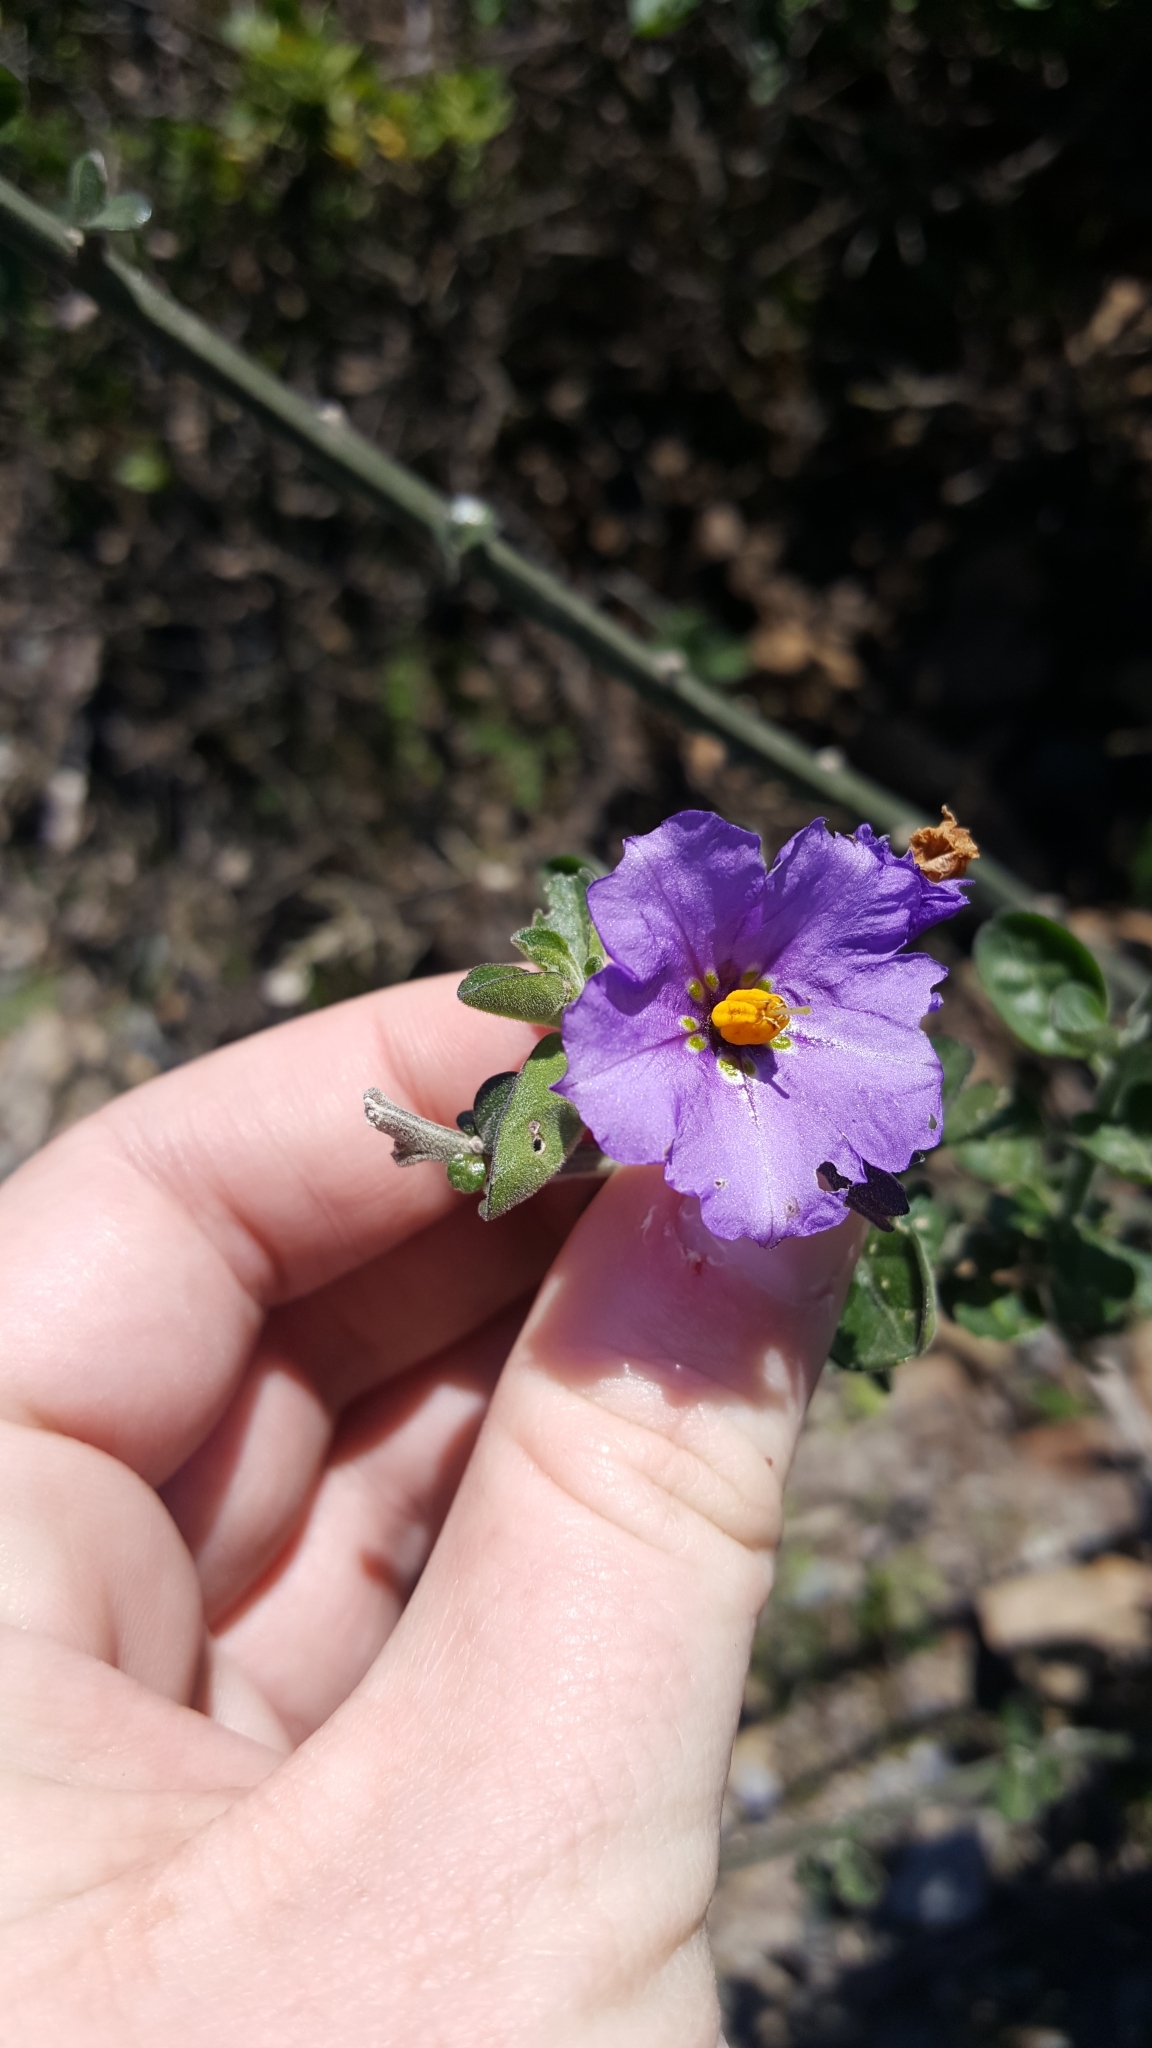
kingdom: Plantae
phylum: Tracheophyta
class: Magnoliopsida
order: Solanales
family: Solanaceae
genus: Solanum
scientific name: Solanum umbelliferum
